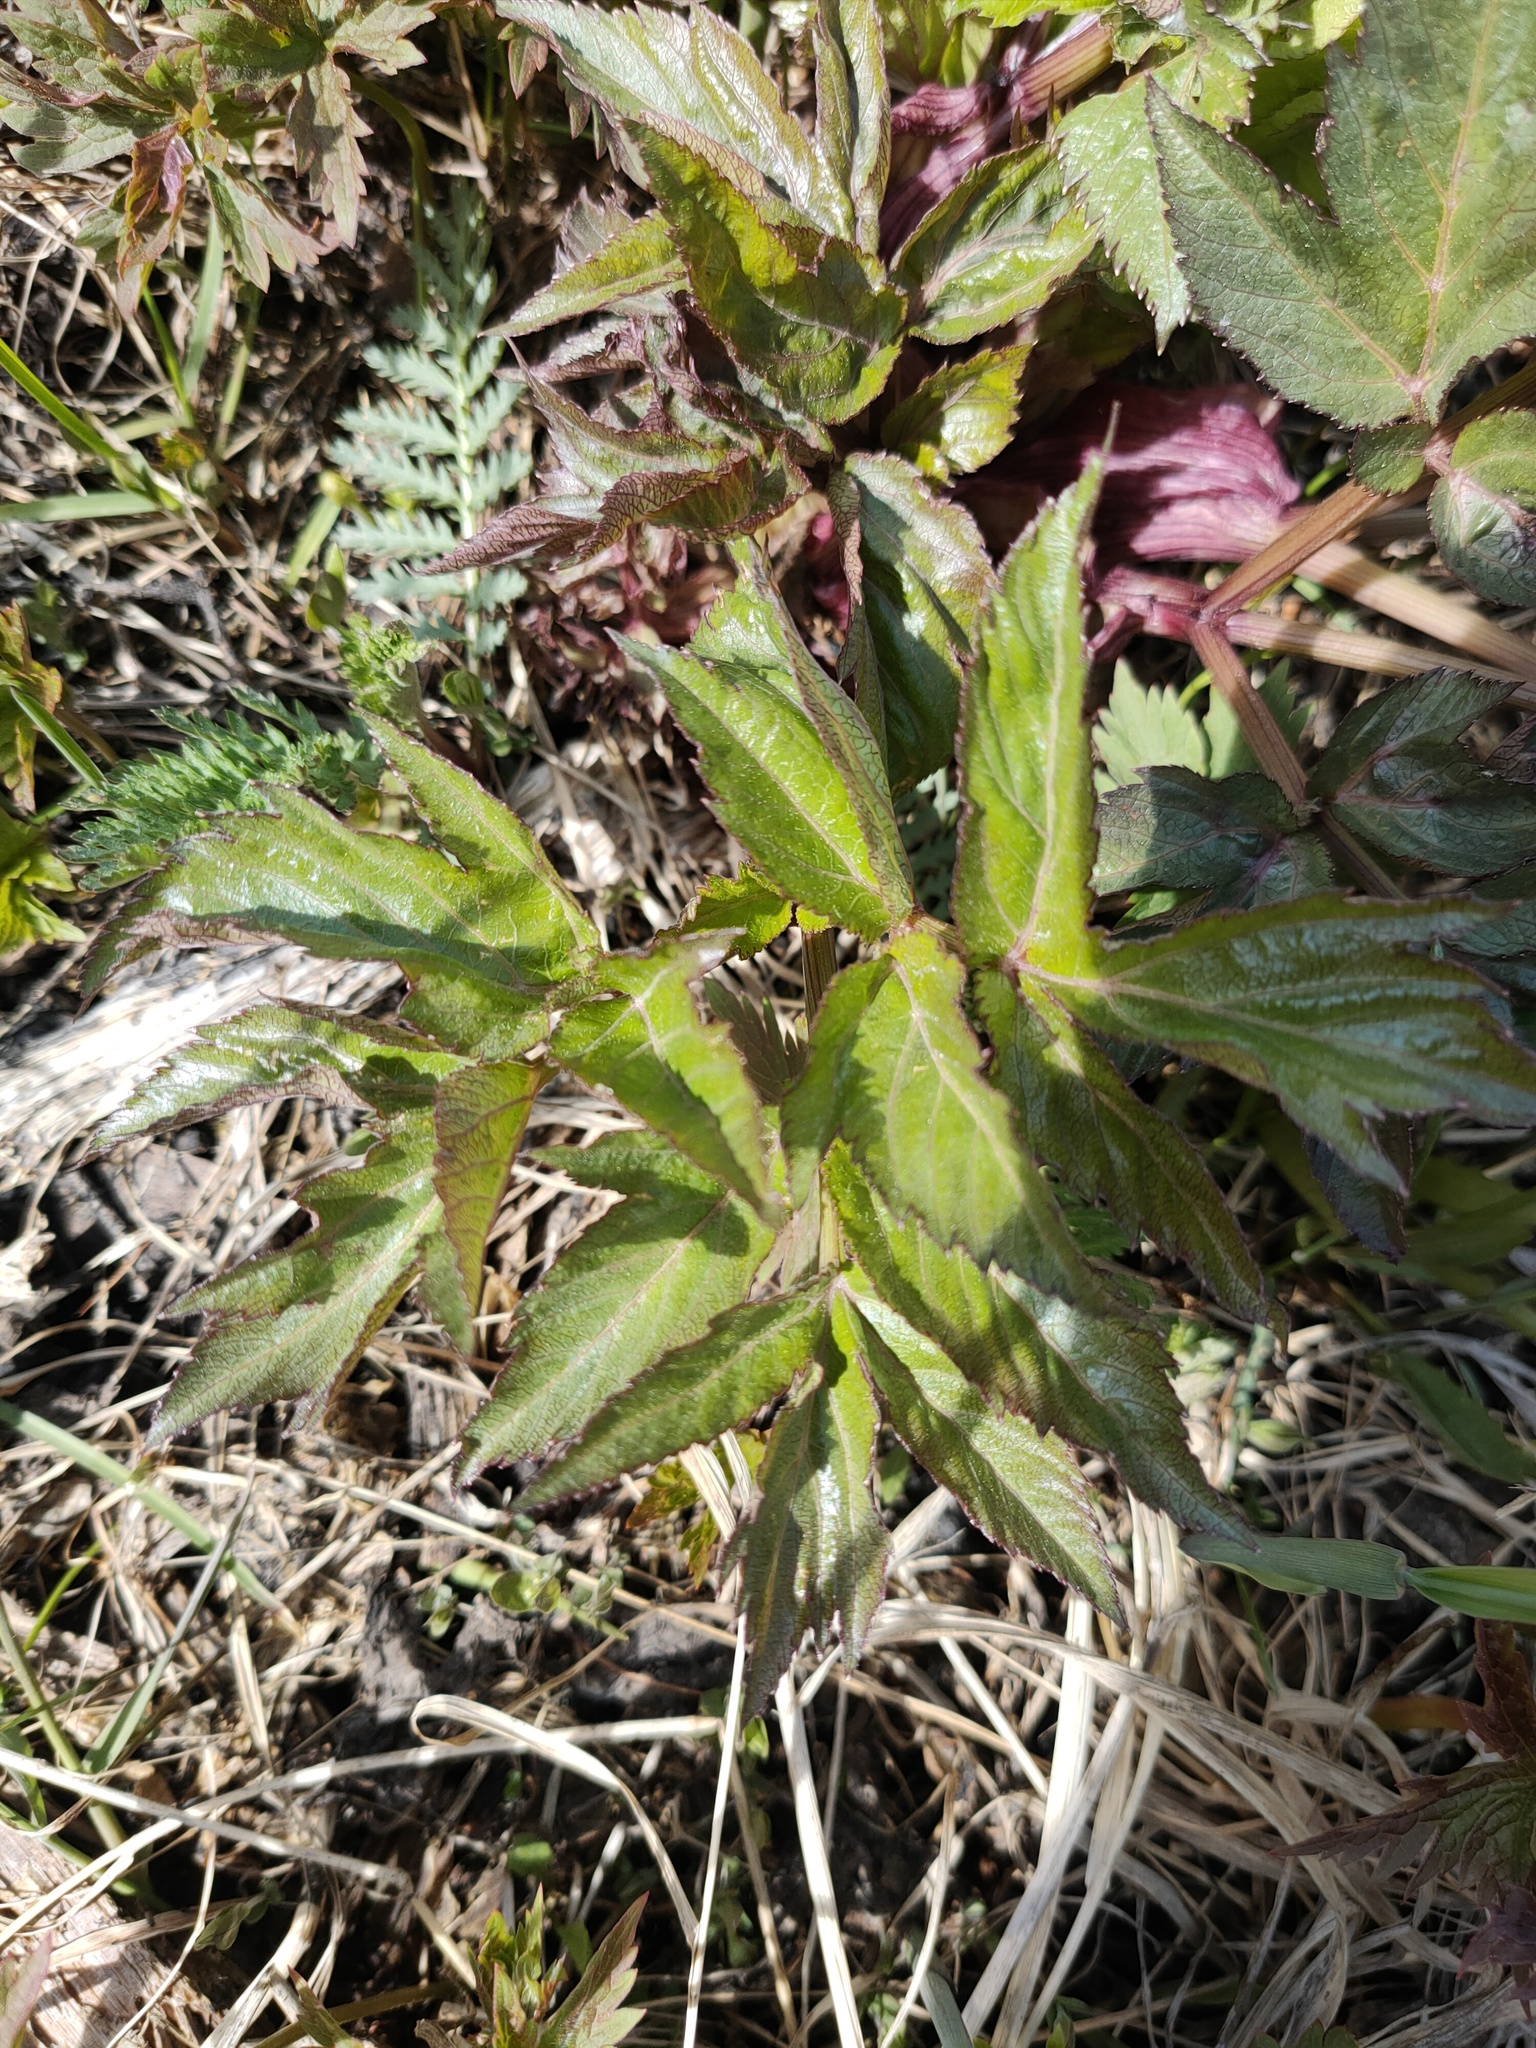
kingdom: Plantae
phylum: Tracheophyta
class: Magnoliopsida
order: Apiales
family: Apiaceae
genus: Angelica
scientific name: Angelica decurrens
